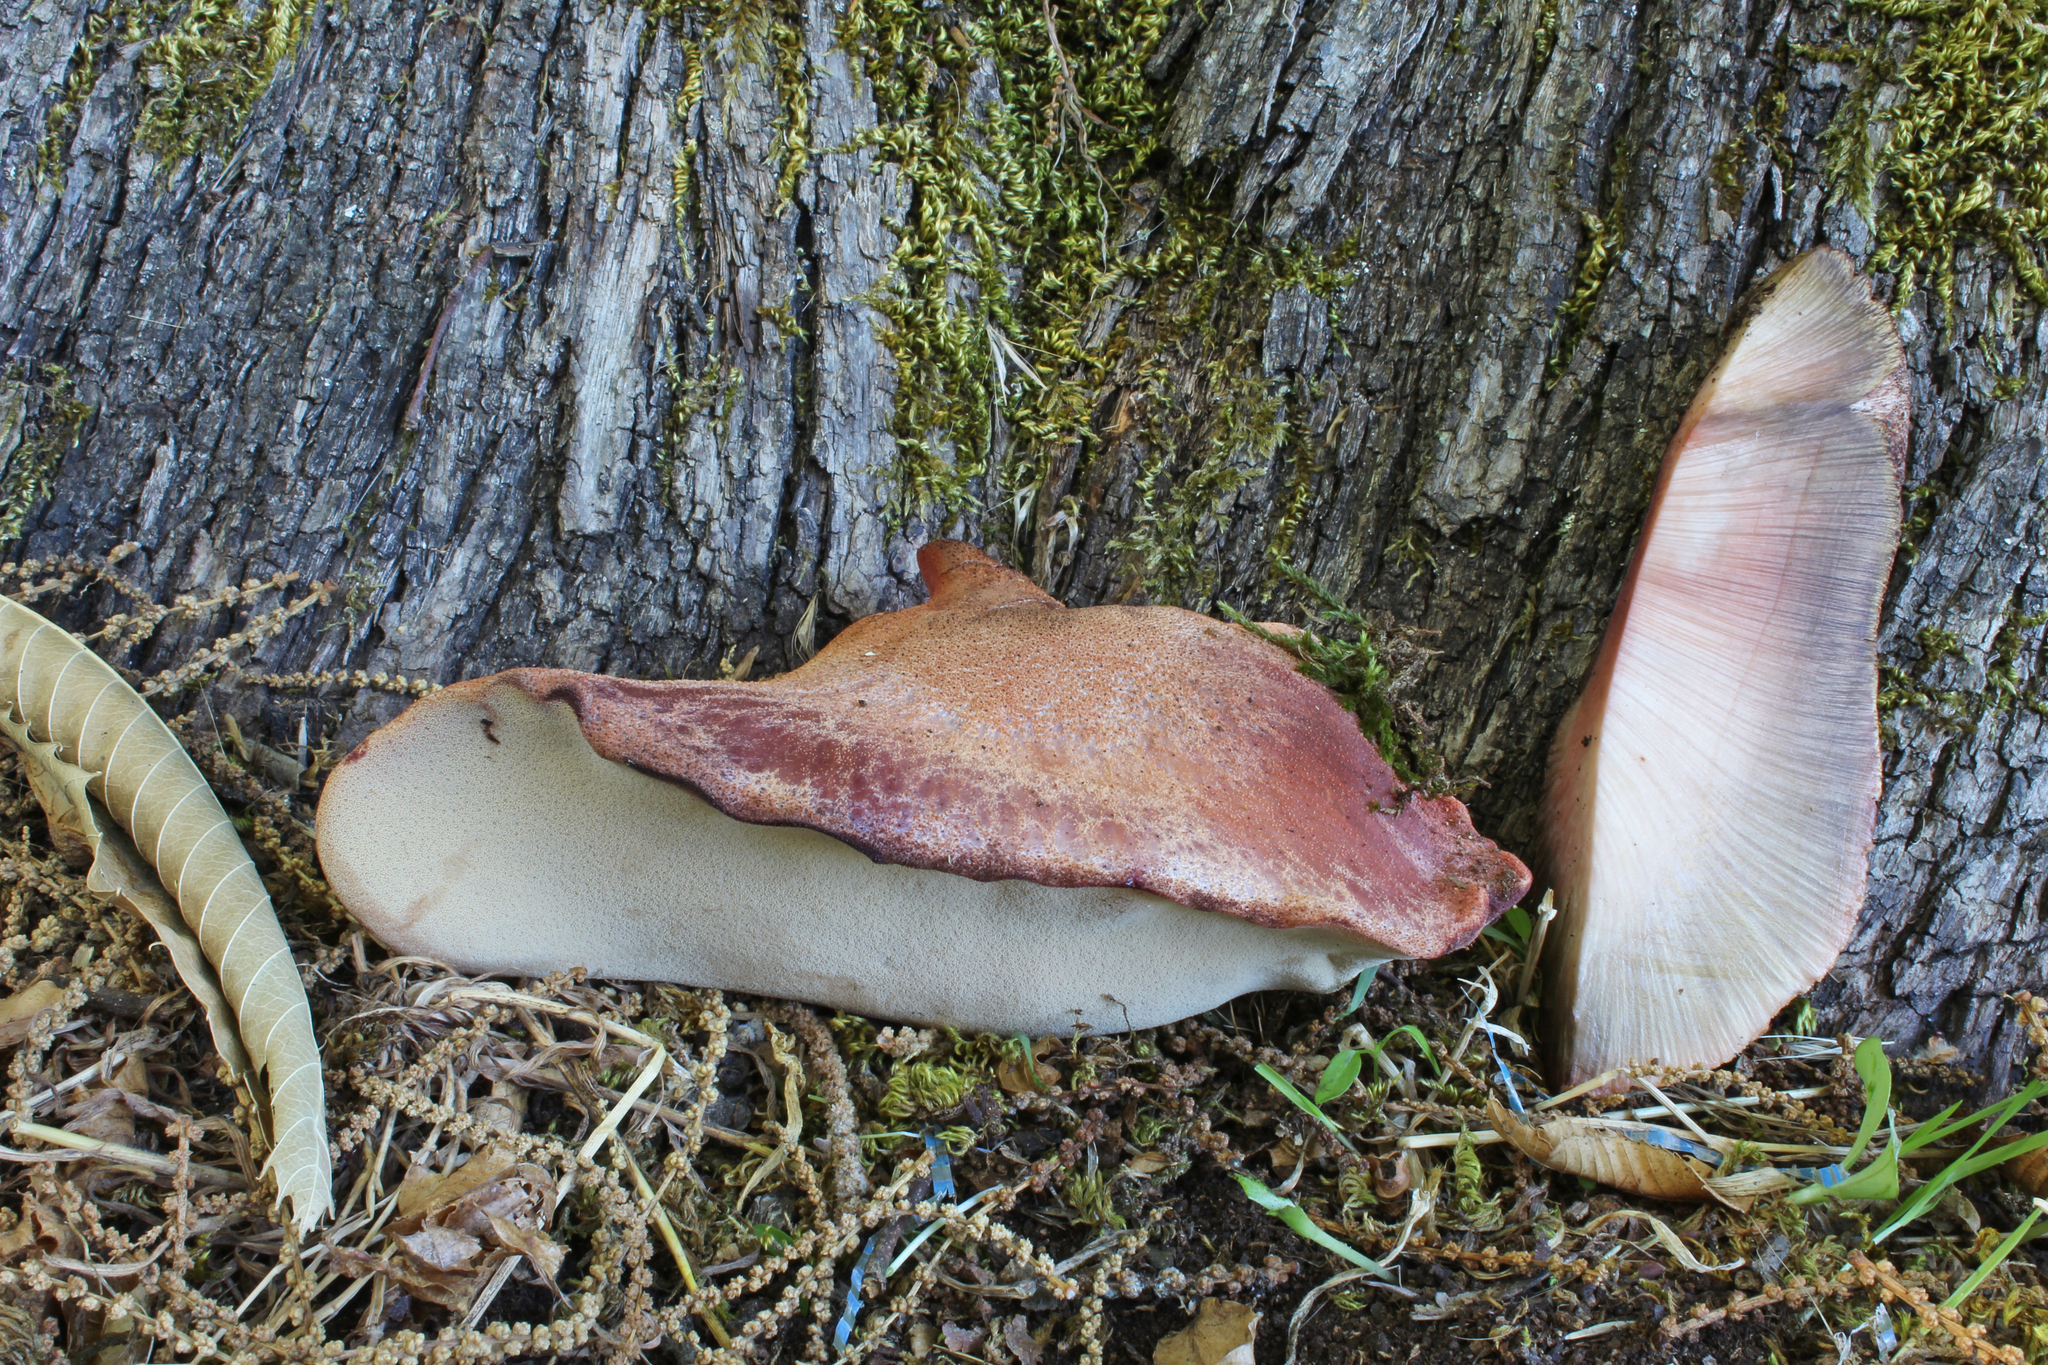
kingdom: Fungi
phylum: Basidiomycota
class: Agaricomycetes
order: Agaricales
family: Fistulinaceae
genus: Fistulina
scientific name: Fistulina hepatica
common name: Beef-steak fungus
